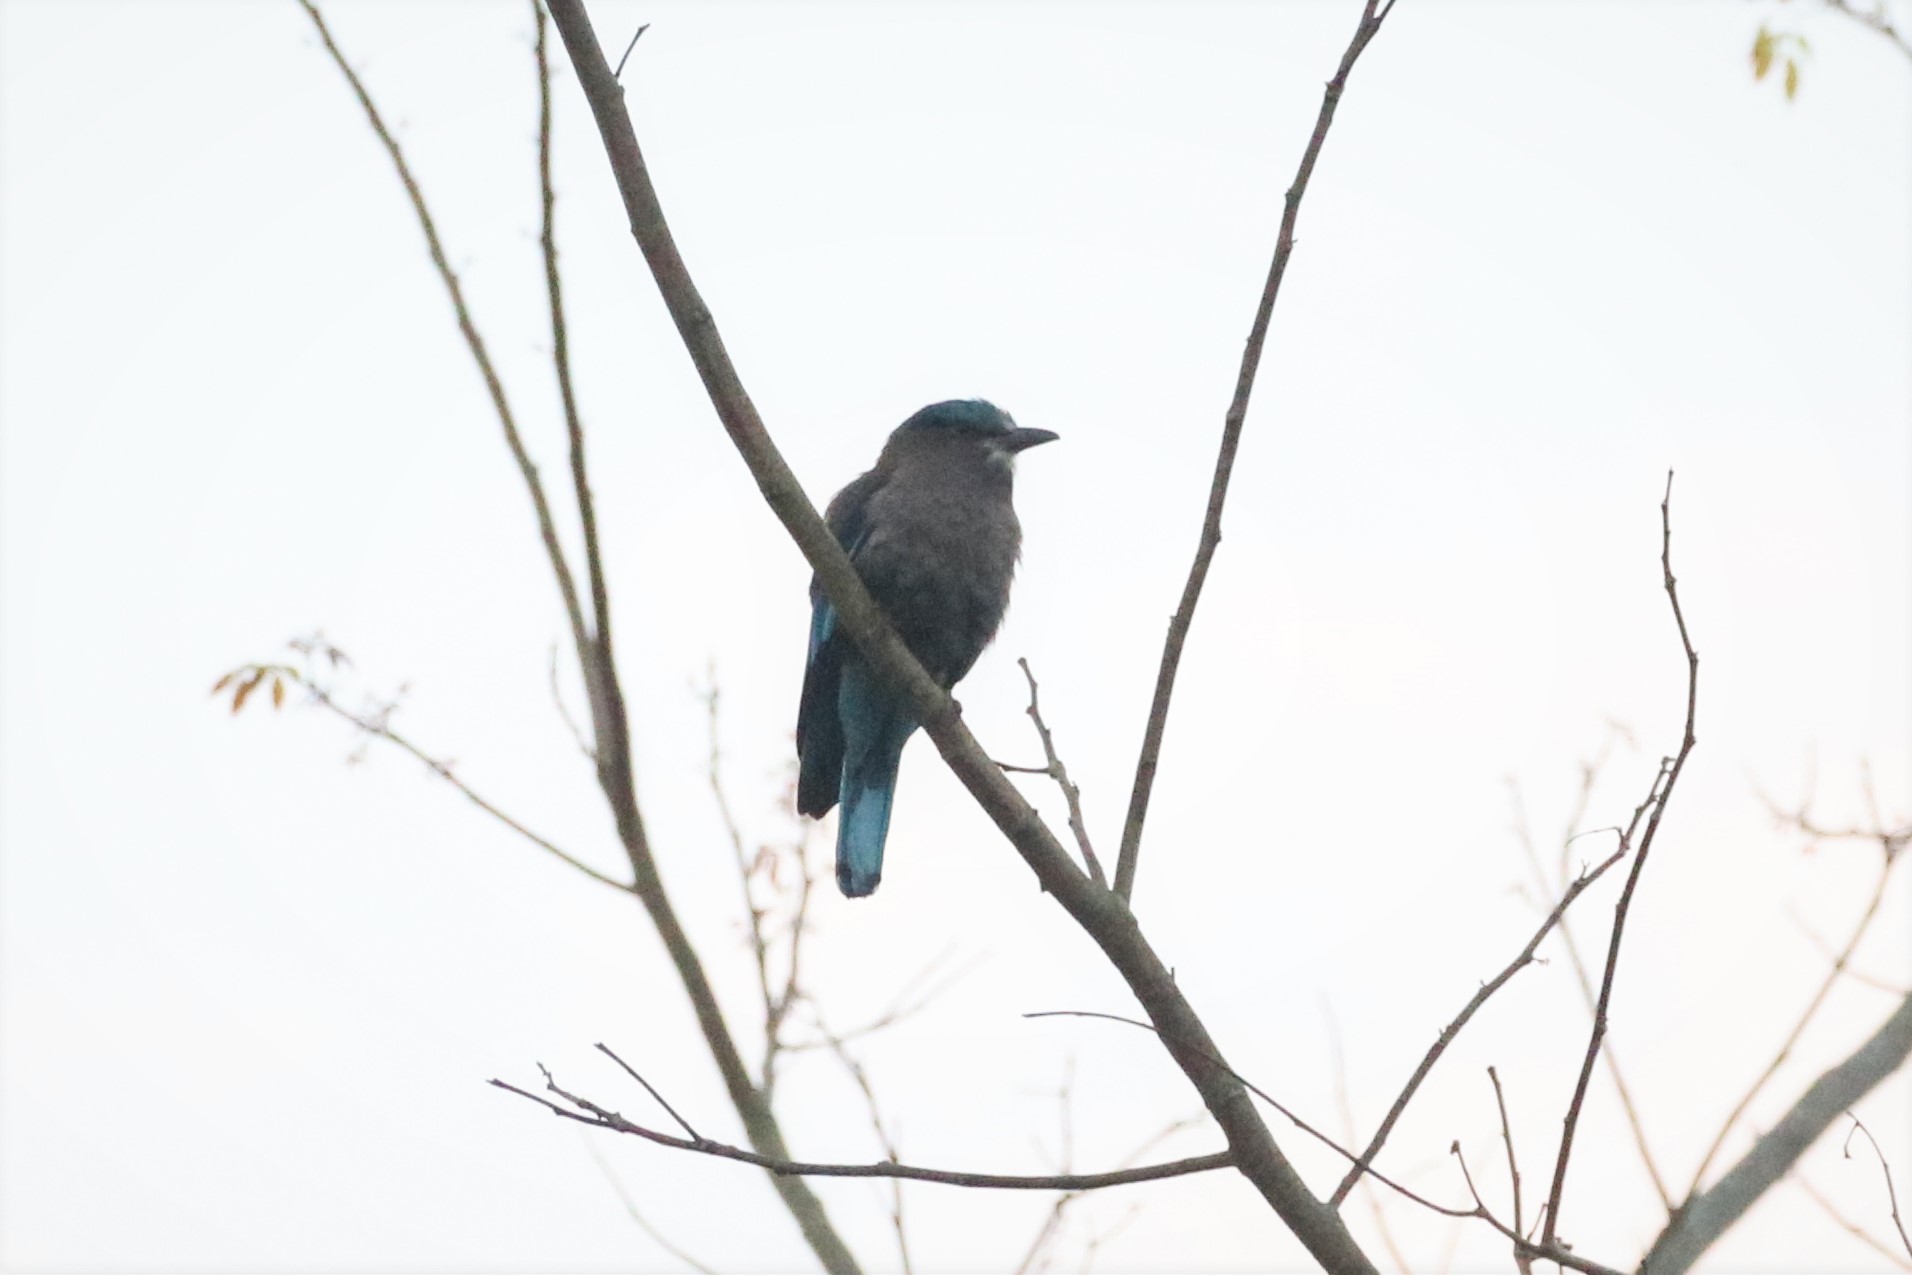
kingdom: Animalia
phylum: Chordata
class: Aves
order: Coraciiformes
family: Coraciidae
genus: Coracias
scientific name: Coracias affinis
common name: Indochinese roller
